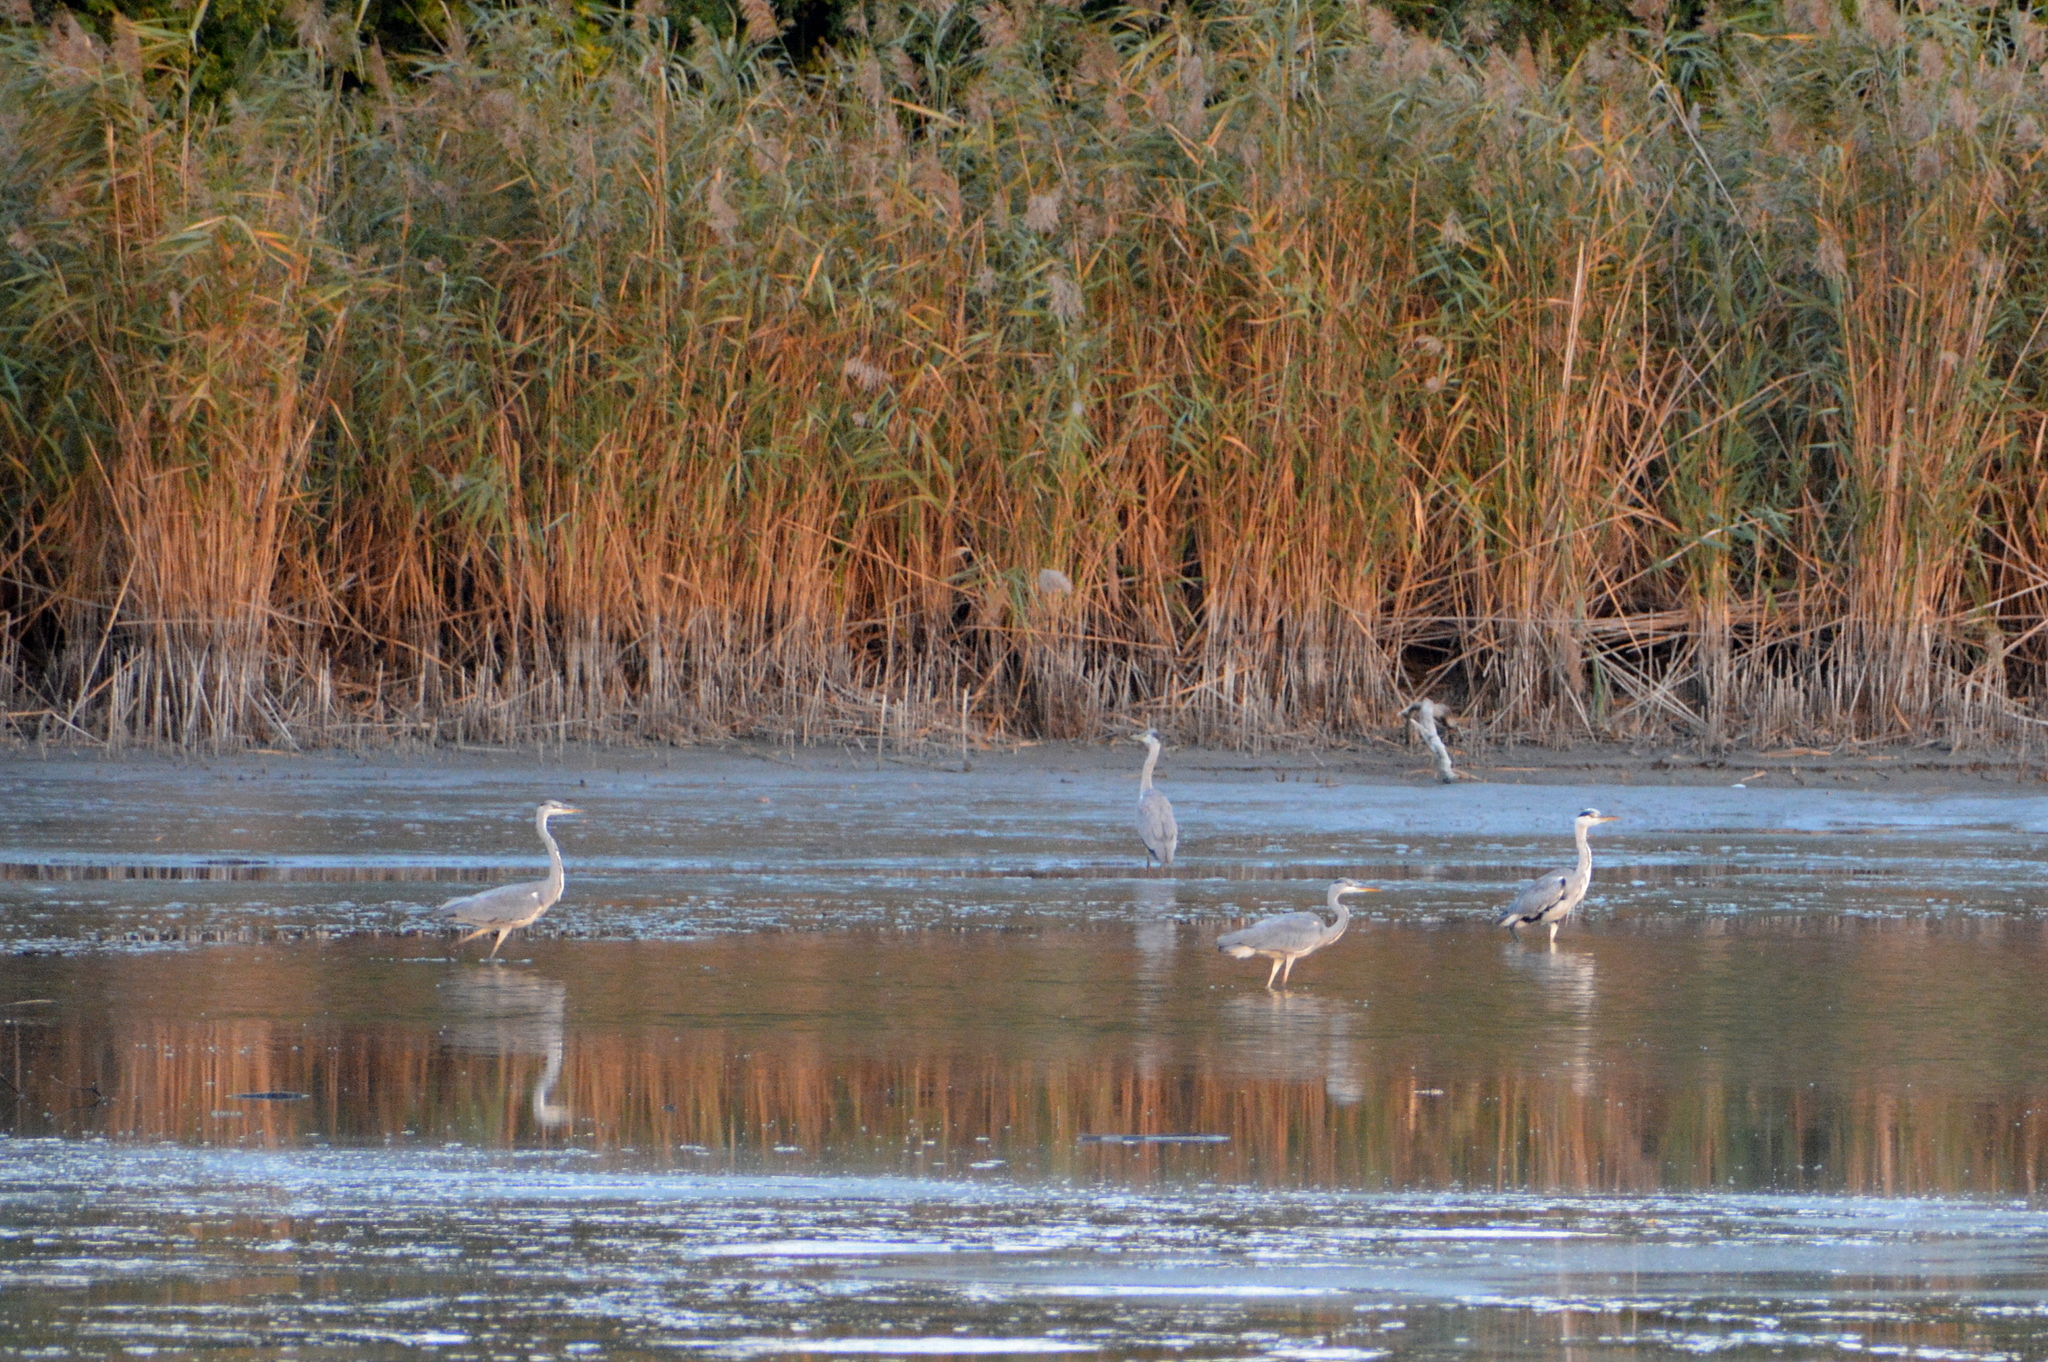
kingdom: Animalia
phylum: Chordata
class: Aves
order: Pelecaniformes
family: Ardeidae
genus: Ardea
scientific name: Ardea cinerea
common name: Grey heron
